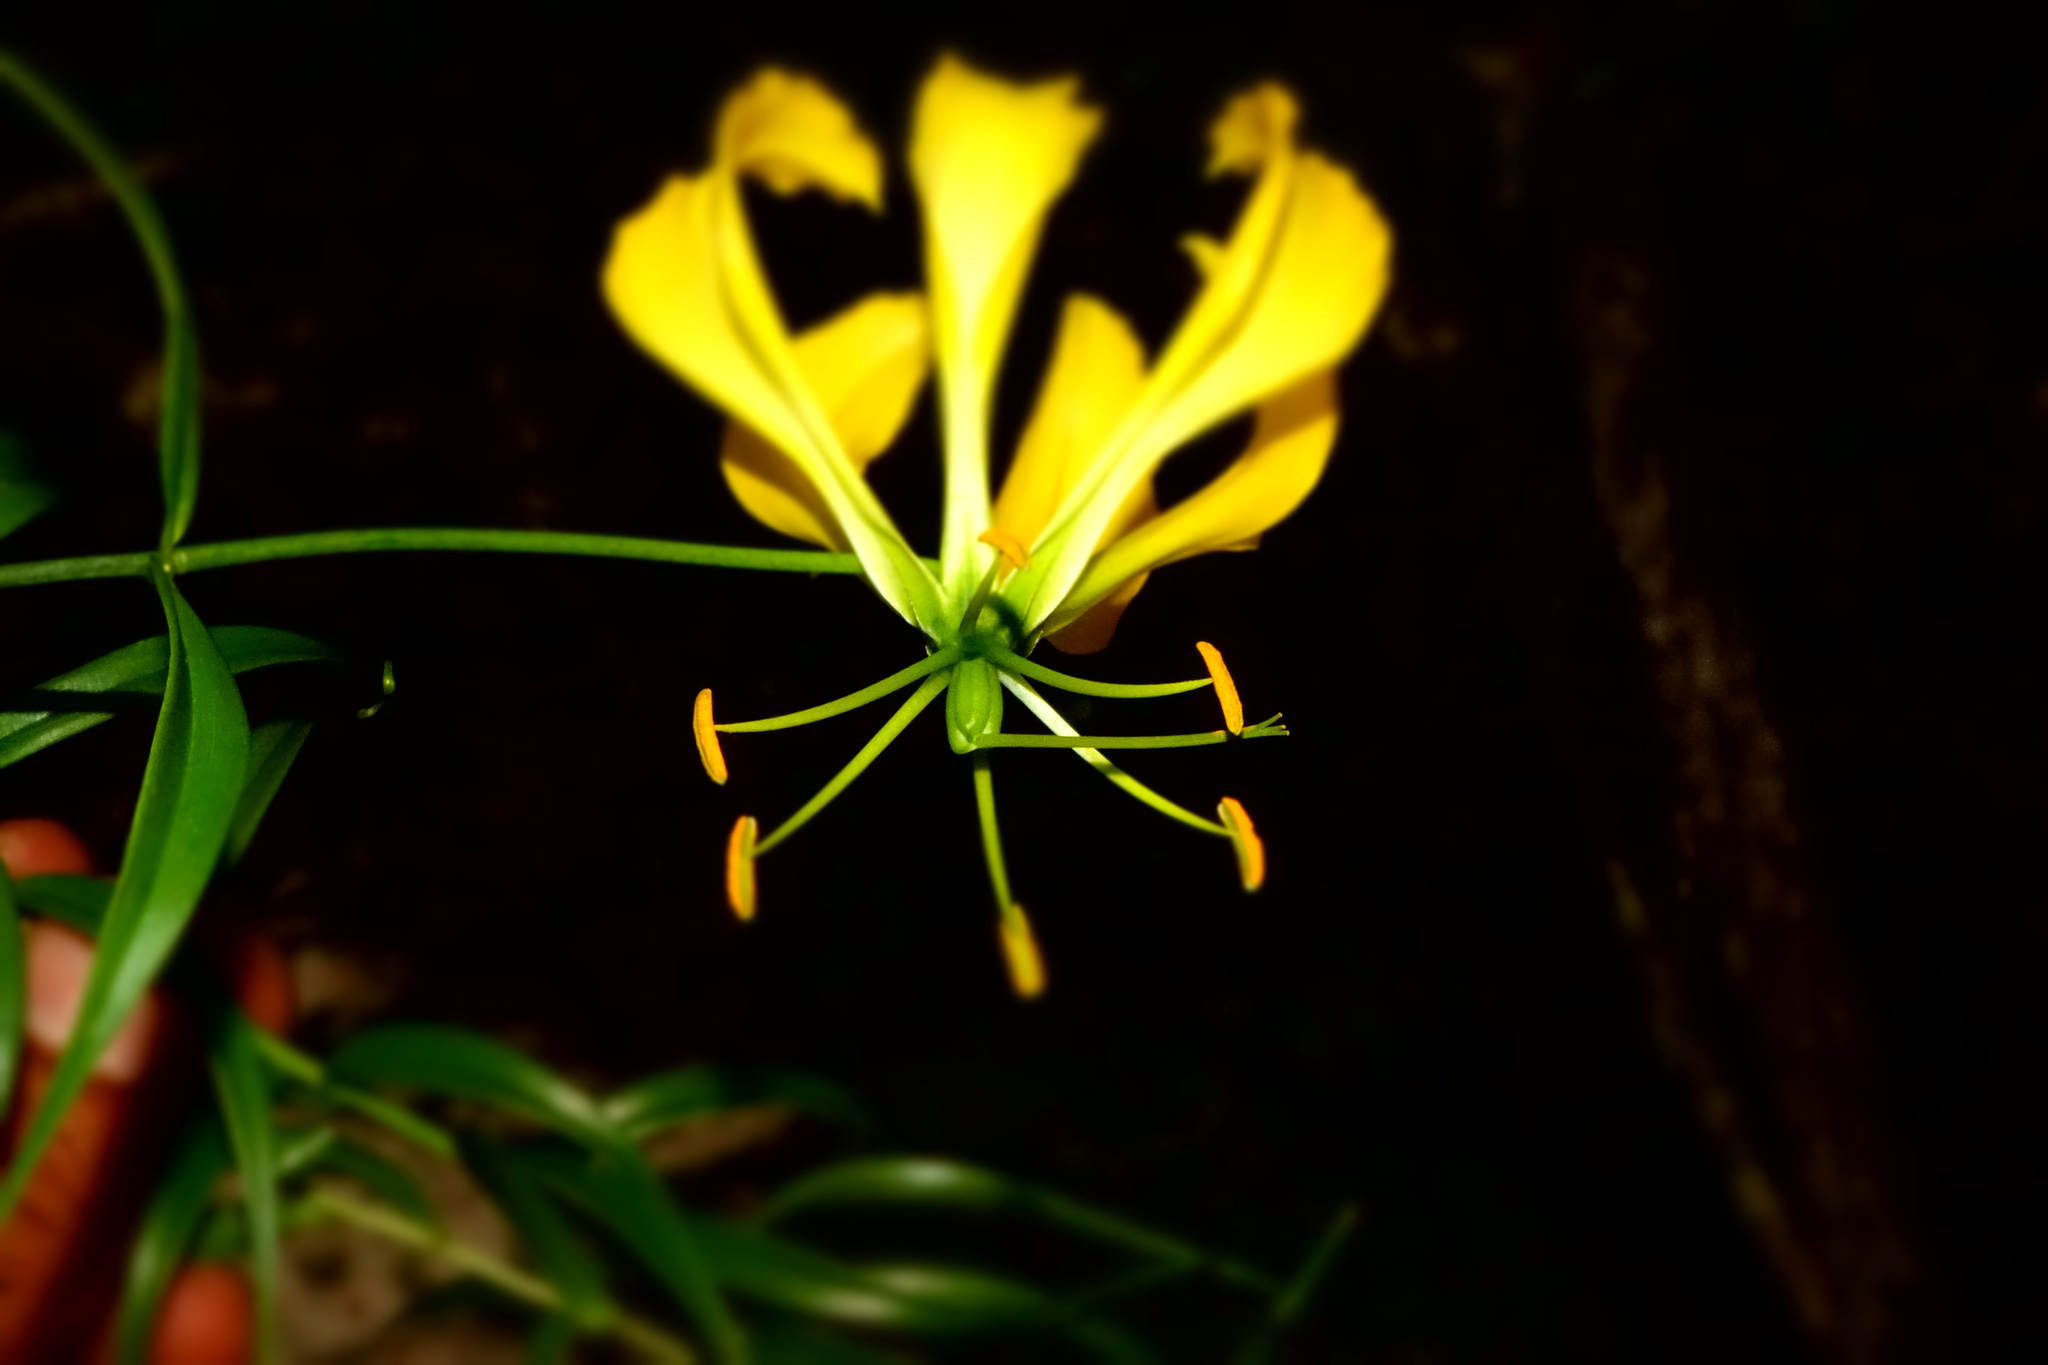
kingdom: Plantae
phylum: Tracheophyta
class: Liliopsida
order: Liliales
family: Colchicaceae
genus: Gloriosa
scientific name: Gloriosa superba
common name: Flame lily
